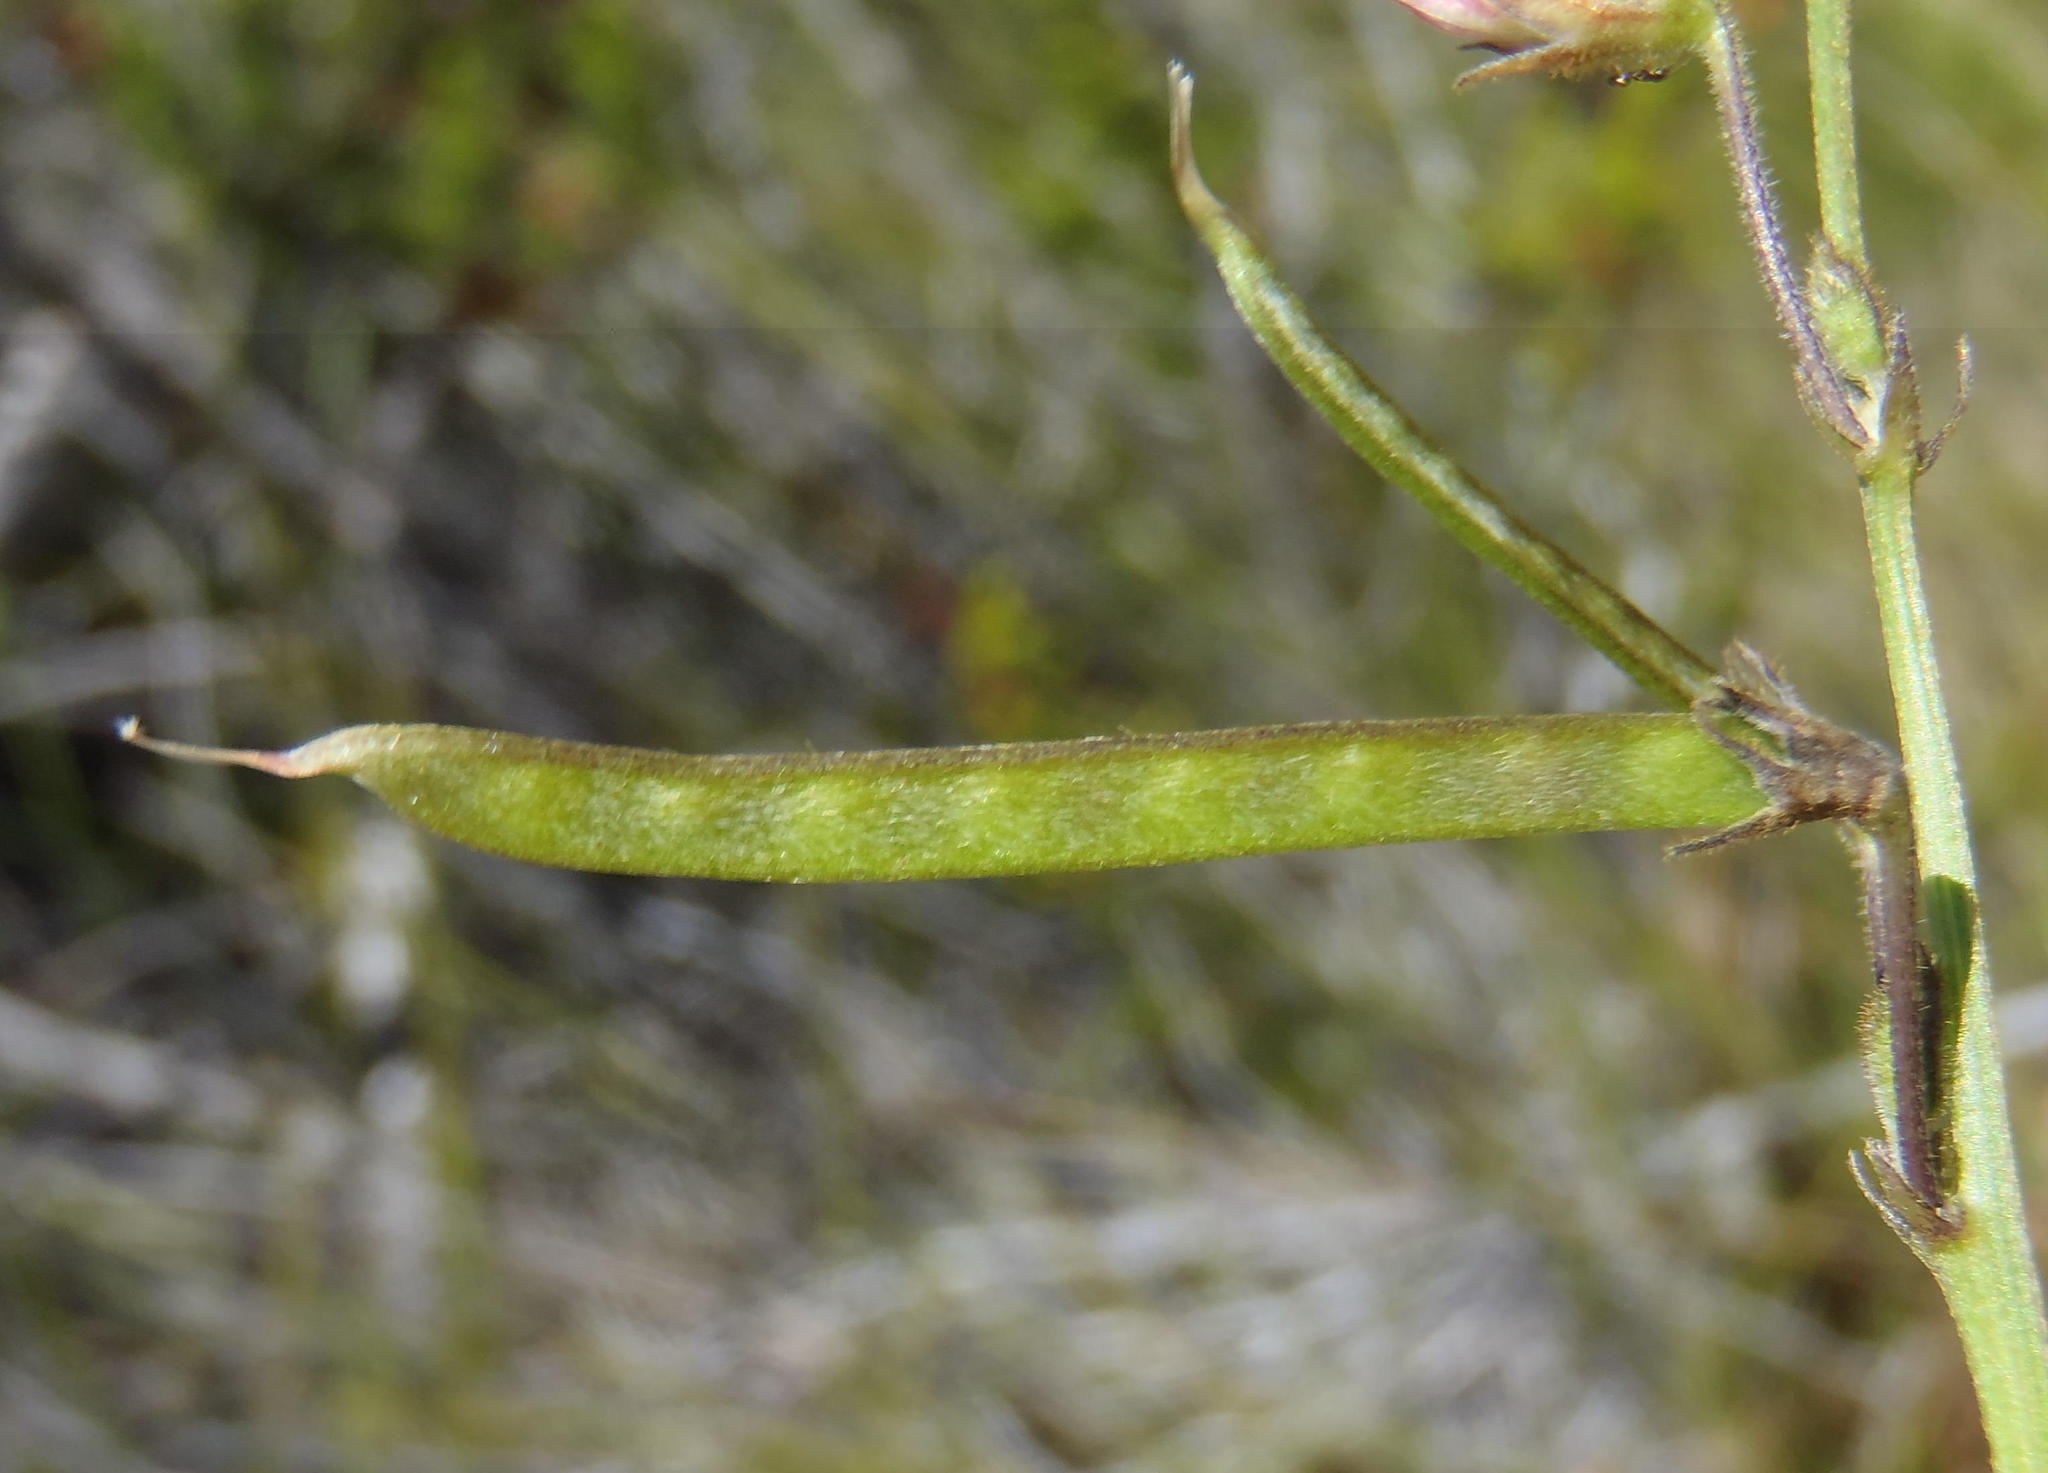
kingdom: Plantae
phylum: Tracheophyta
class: Magnoliopsida
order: Fabales
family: Fabaceae
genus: Tephrosia
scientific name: Tephrosia capensis
